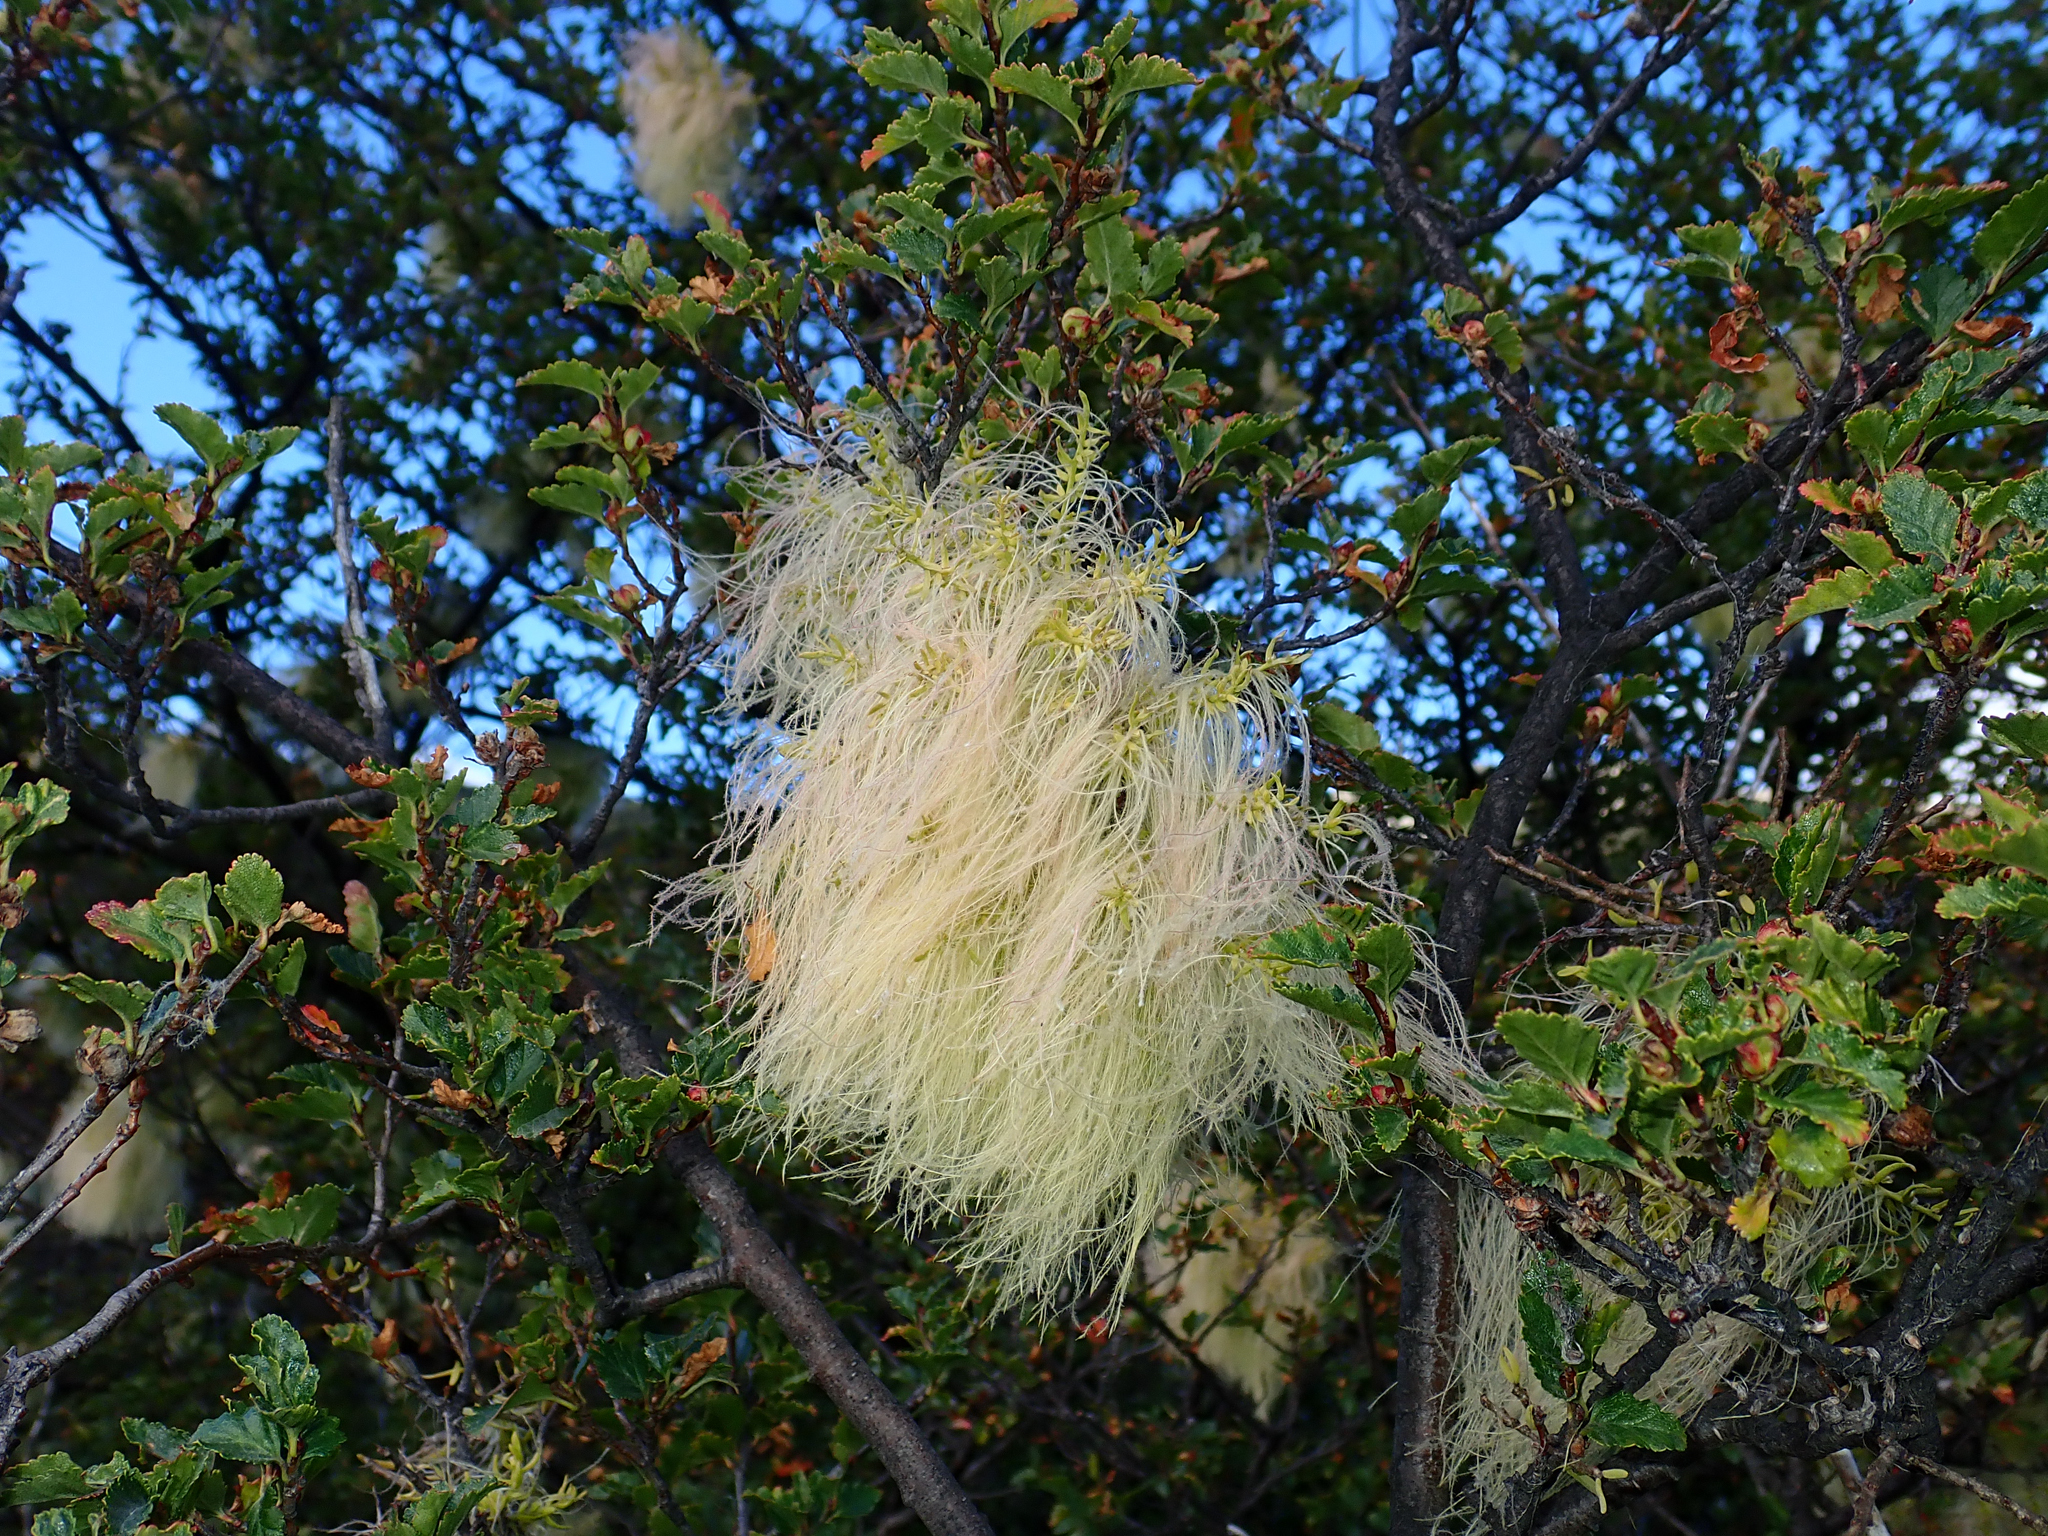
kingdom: Plantae
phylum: Tracheophyta
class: Magnoliopsida
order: Santalales
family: Misodendraceae
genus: Misodendrum
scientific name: Misodendrum linearifolium
